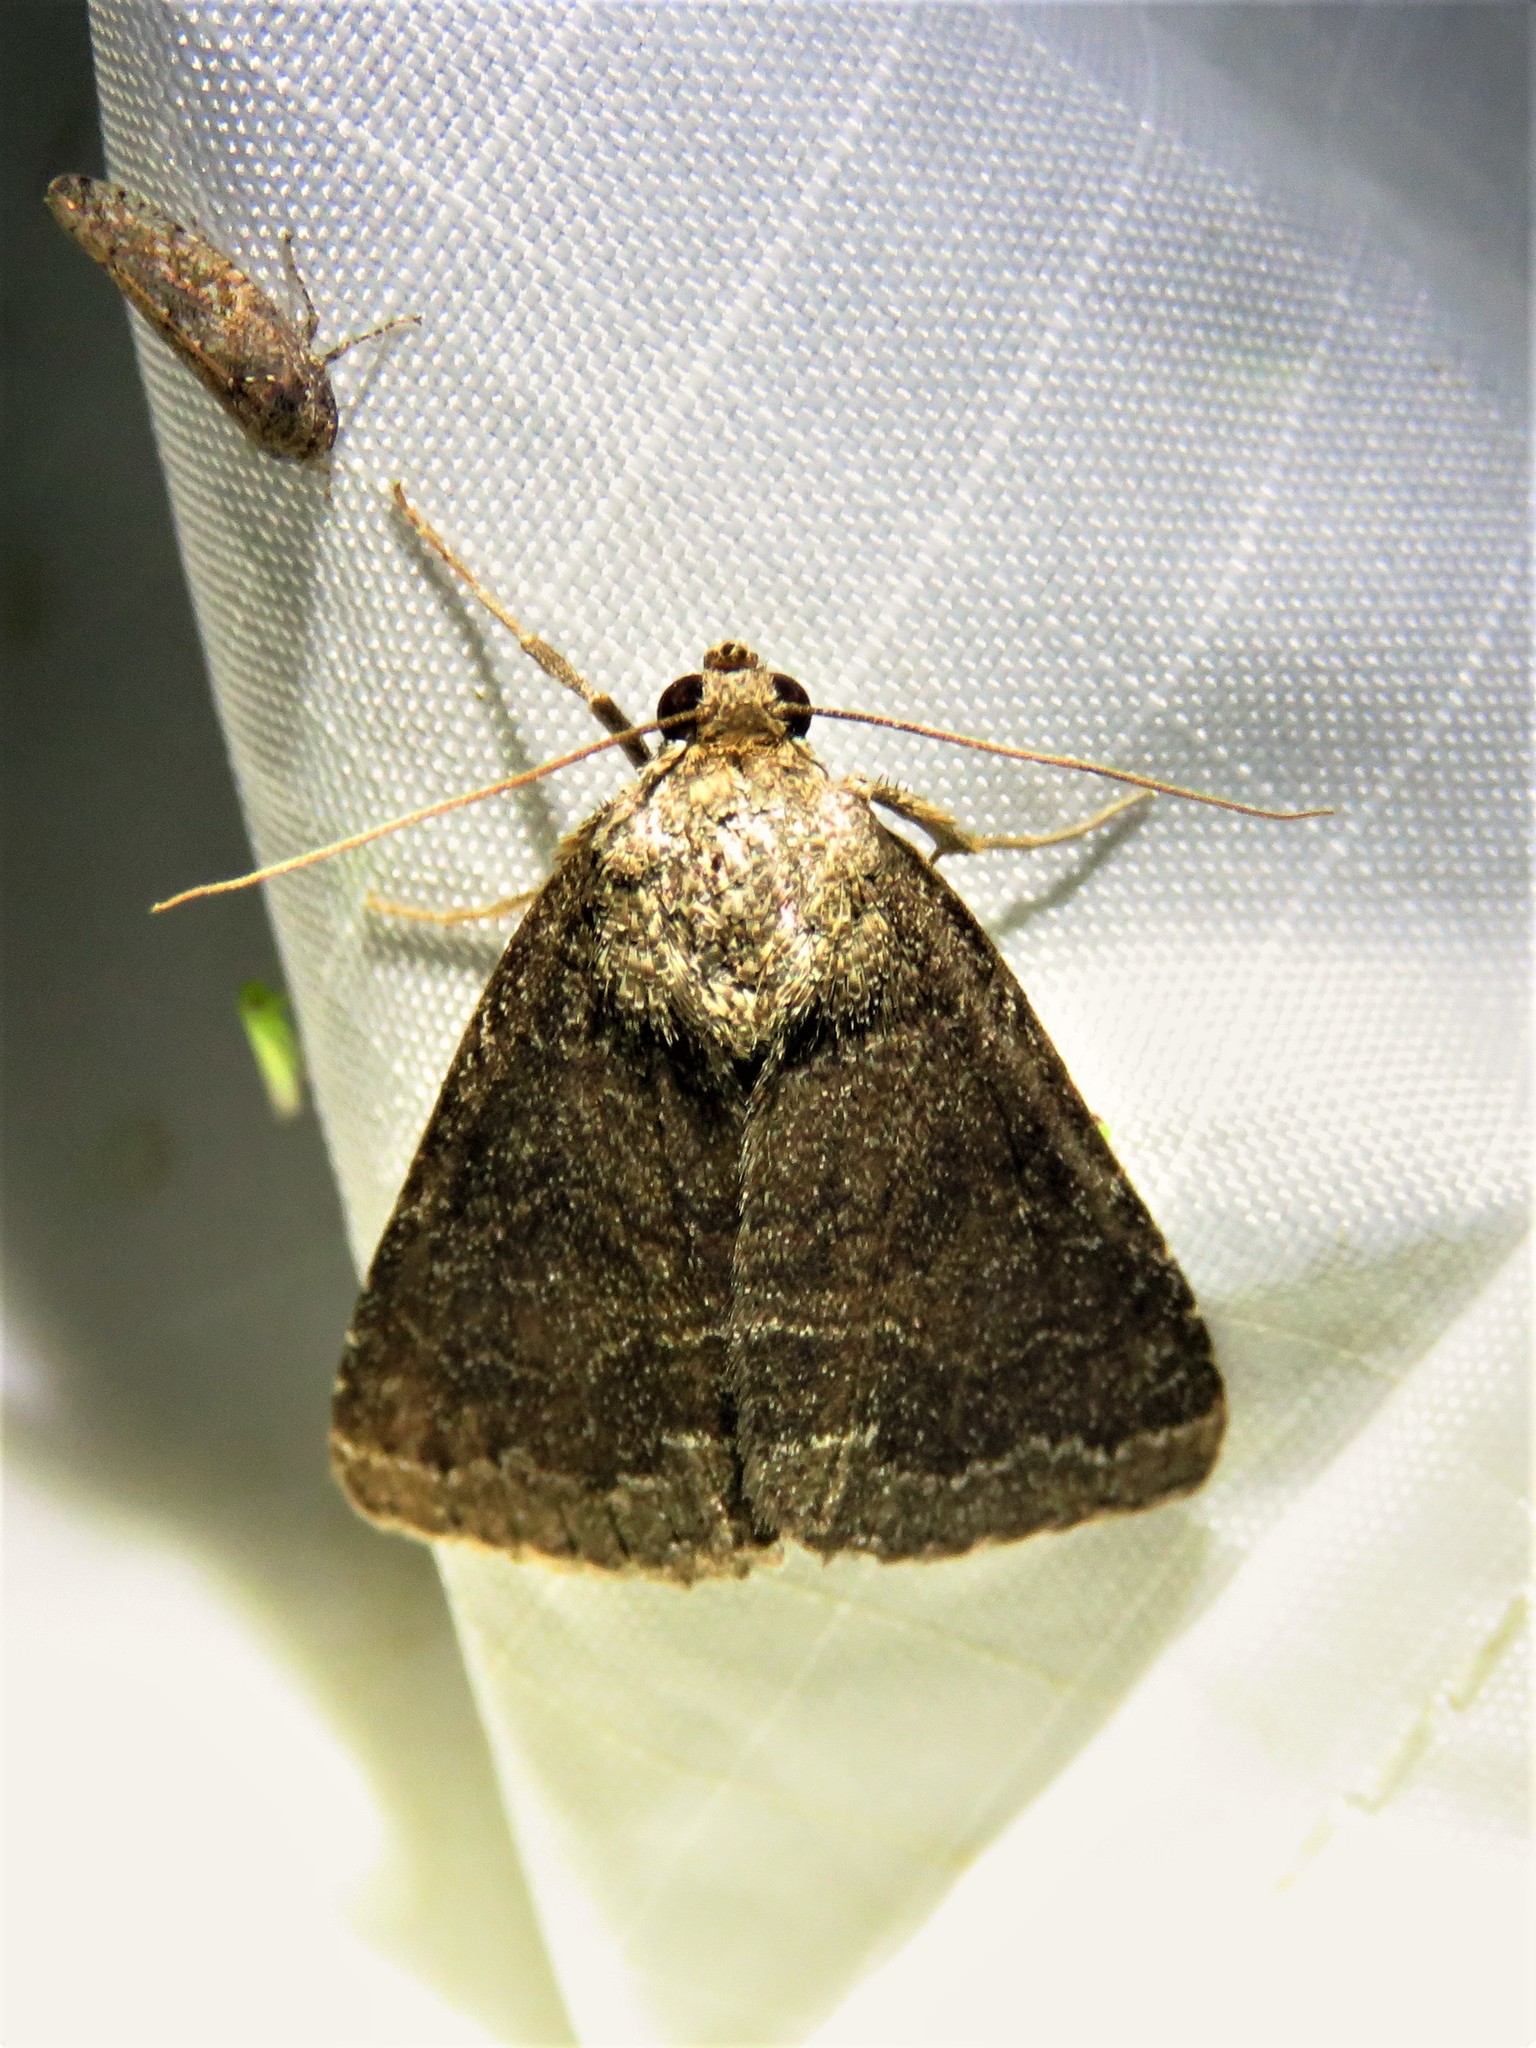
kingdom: Animalia
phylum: Arthropoda
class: Insecta
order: Lepidoptera
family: Erebidae
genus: Matigramma
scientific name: Matigramma pulverilinea
